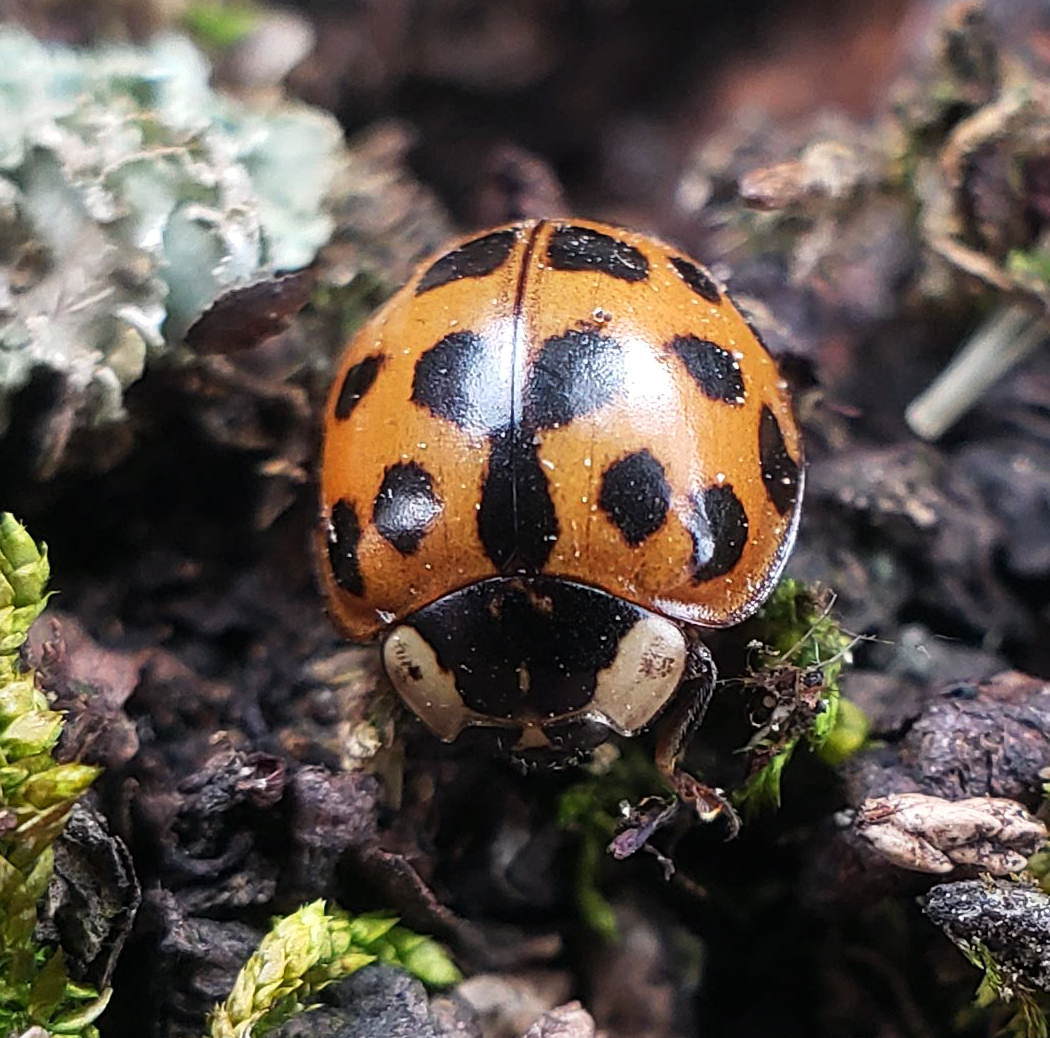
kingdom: Animalia
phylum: Arthropoda
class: Insecta
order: Coleoptera
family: Coccinellidae
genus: Harmonia
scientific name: Harmonia axyridis
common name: Harlequin ladybird
